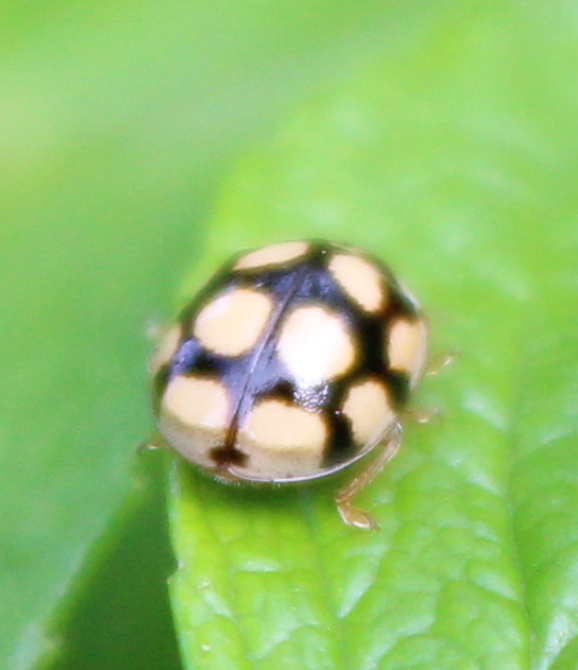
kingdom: Animalia
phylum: Arthropoda
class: Insecta
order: Coleoptera
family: Coccinellidae
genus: Adalia
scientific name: Adalia decempunctata
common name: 10-spot ladybird
